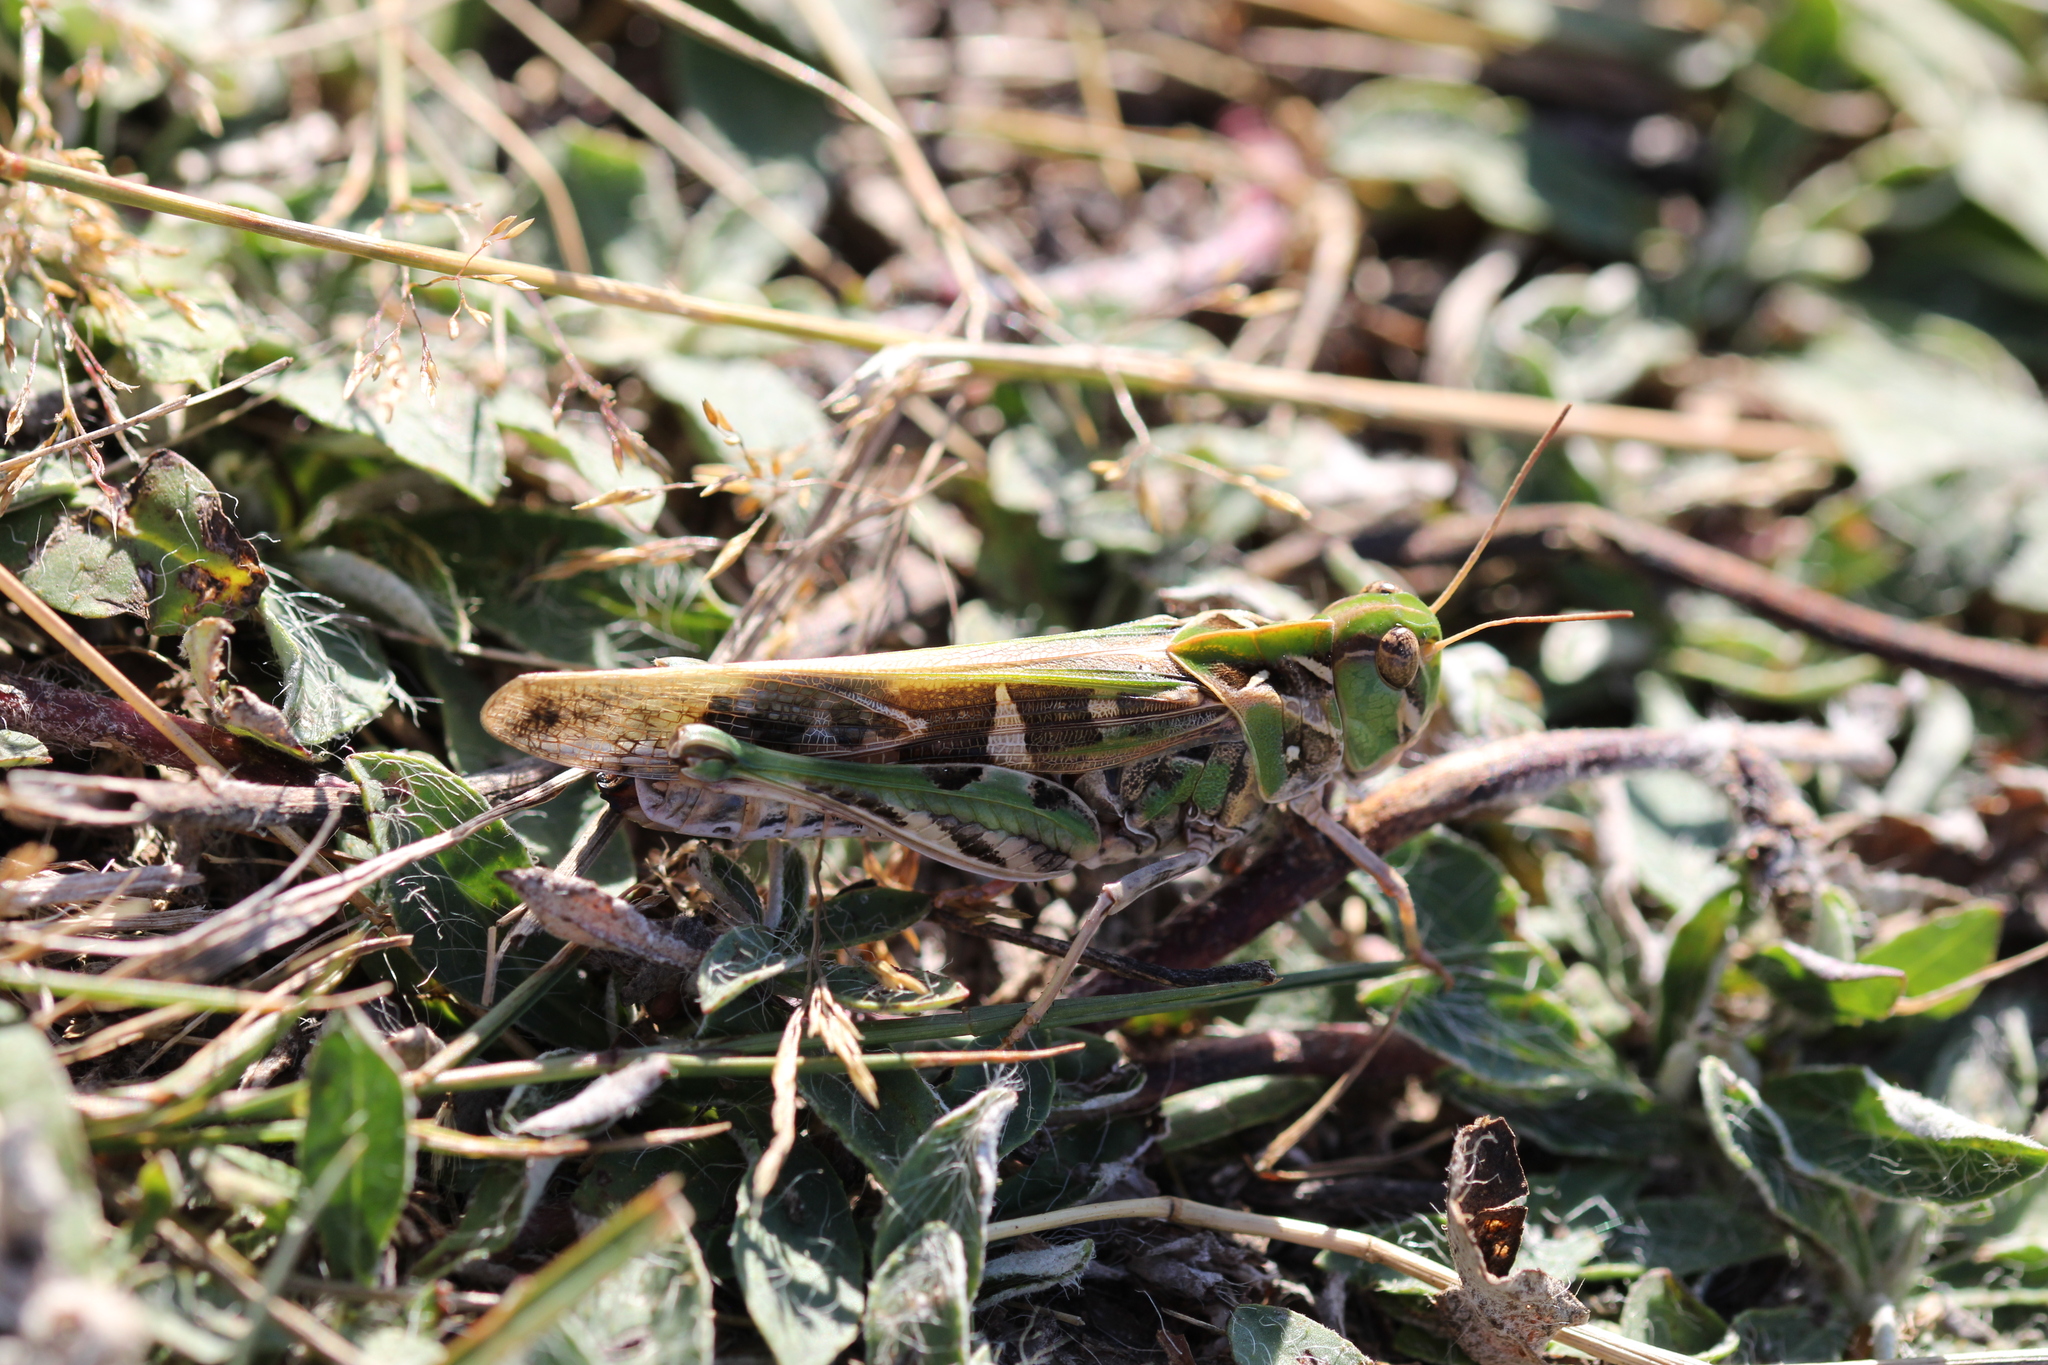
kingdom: Animalia
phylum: Arthropoda
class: Insecta
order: Orthoptera
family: Acrididae
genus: Oedaleus
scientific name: Oedaleus decorus
